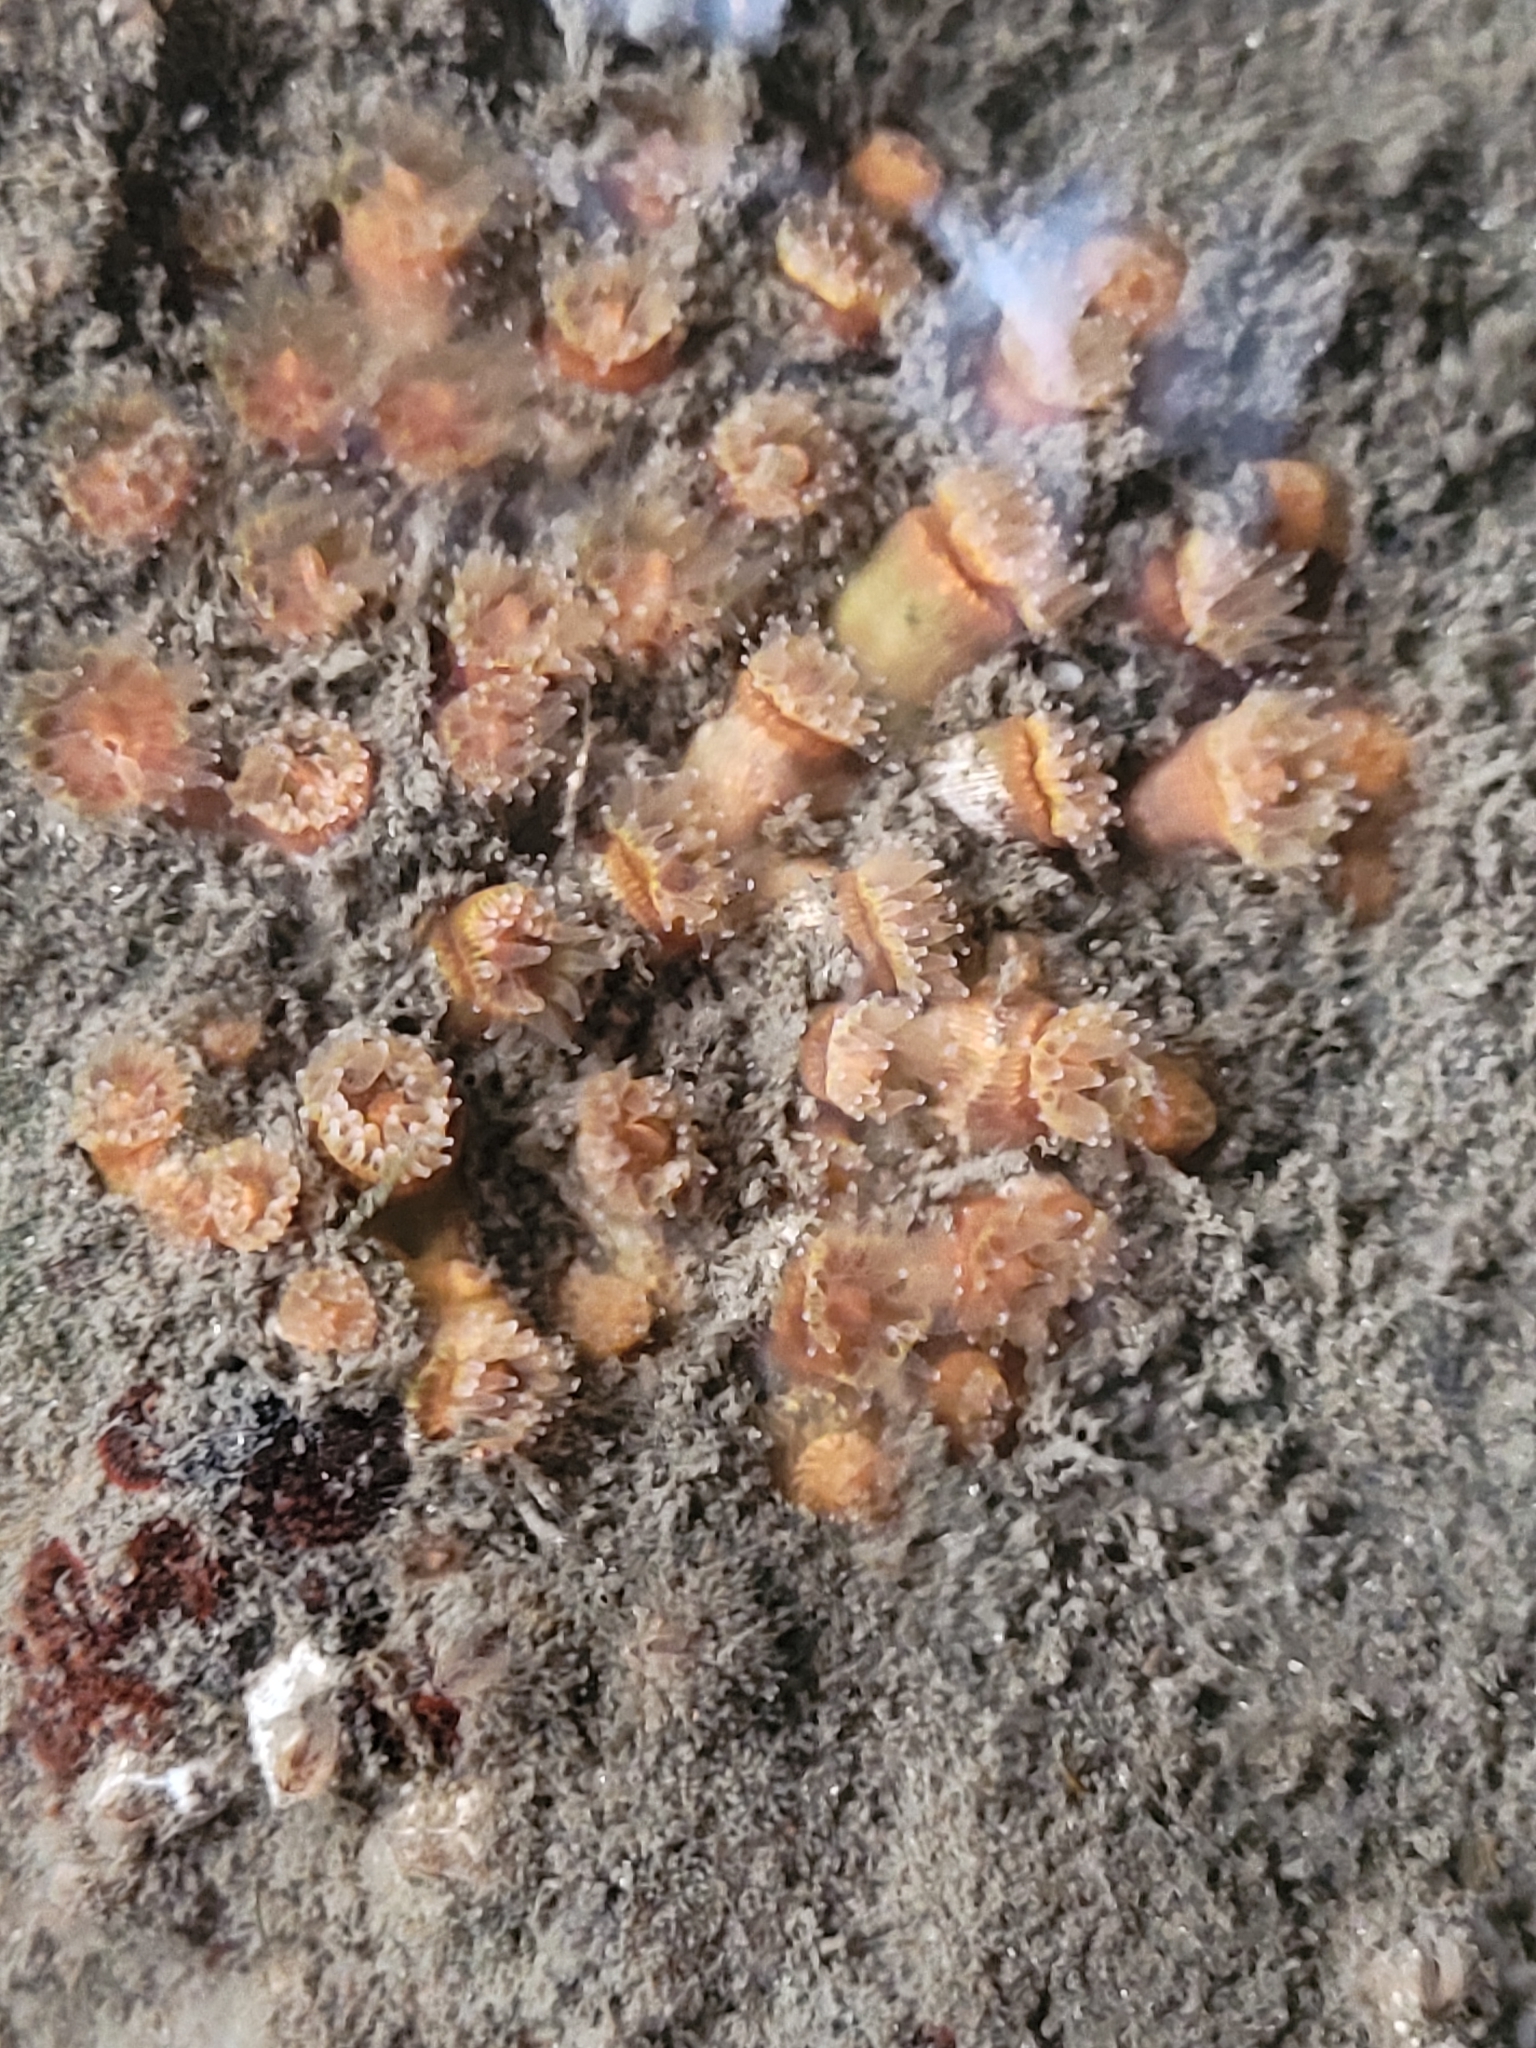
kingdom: Animalia
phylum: Cnidaria
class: Anthozoa
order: Scleractinia
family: Astrangiidae
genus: Astrangia
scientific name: Astrangia haimei
